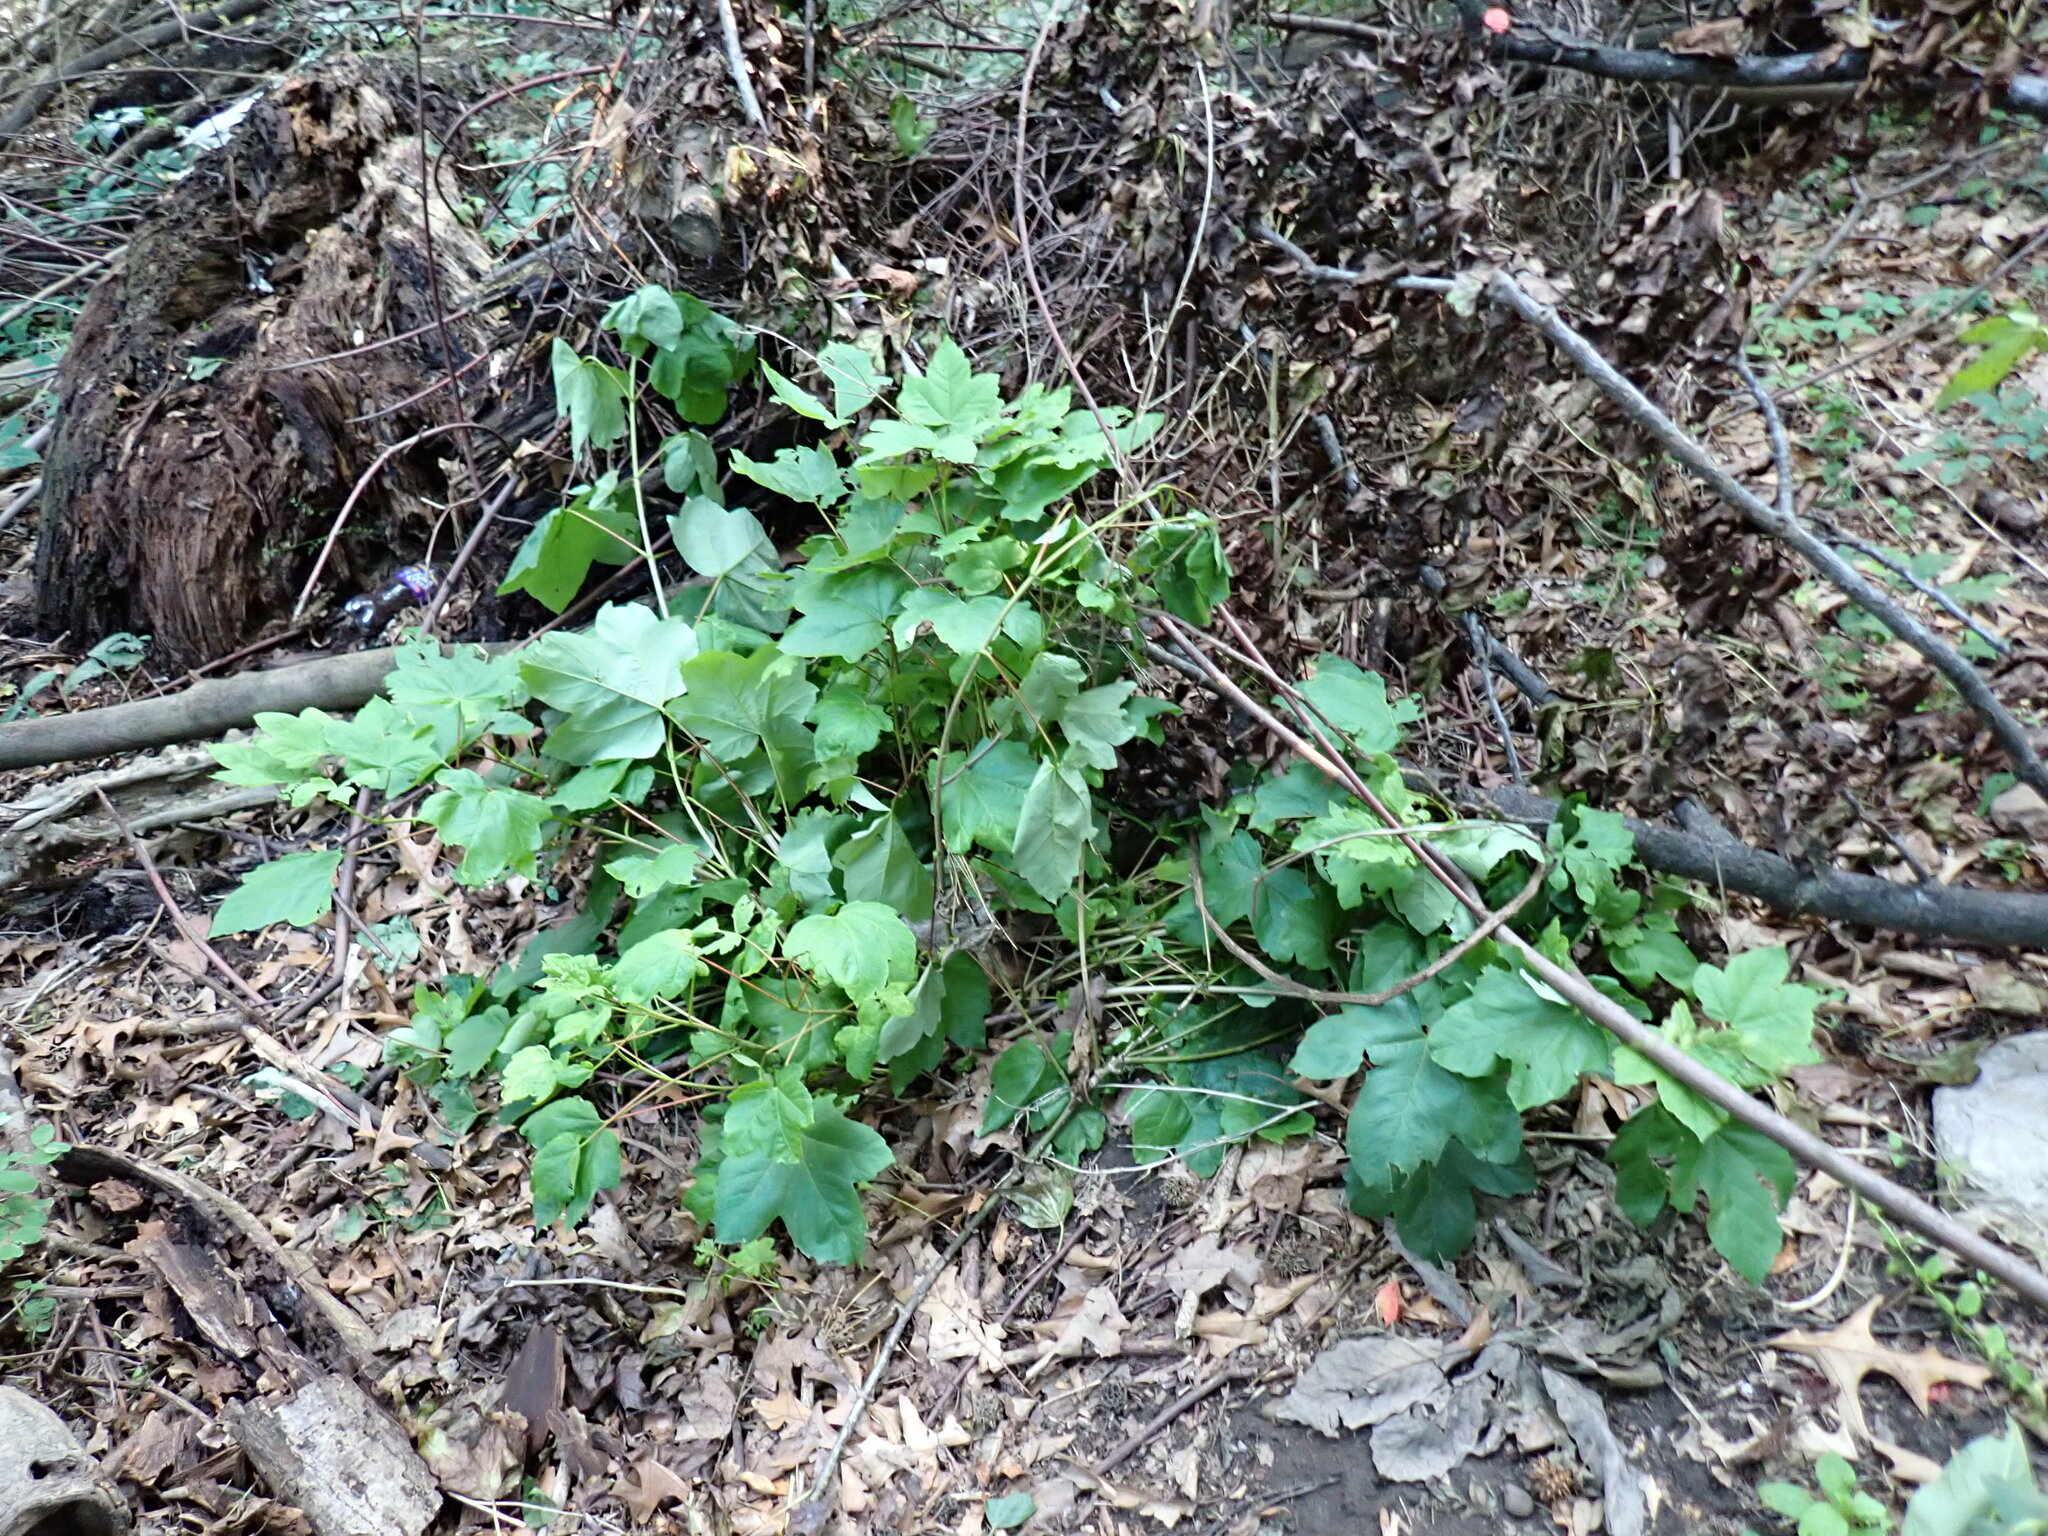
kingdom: Plantae
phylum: Tracheophyta
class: Magnoliopsida
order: Sapindales
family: Sapindaceae
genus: Acer
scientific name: Acer pseudoplatanus
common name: Sycamore
